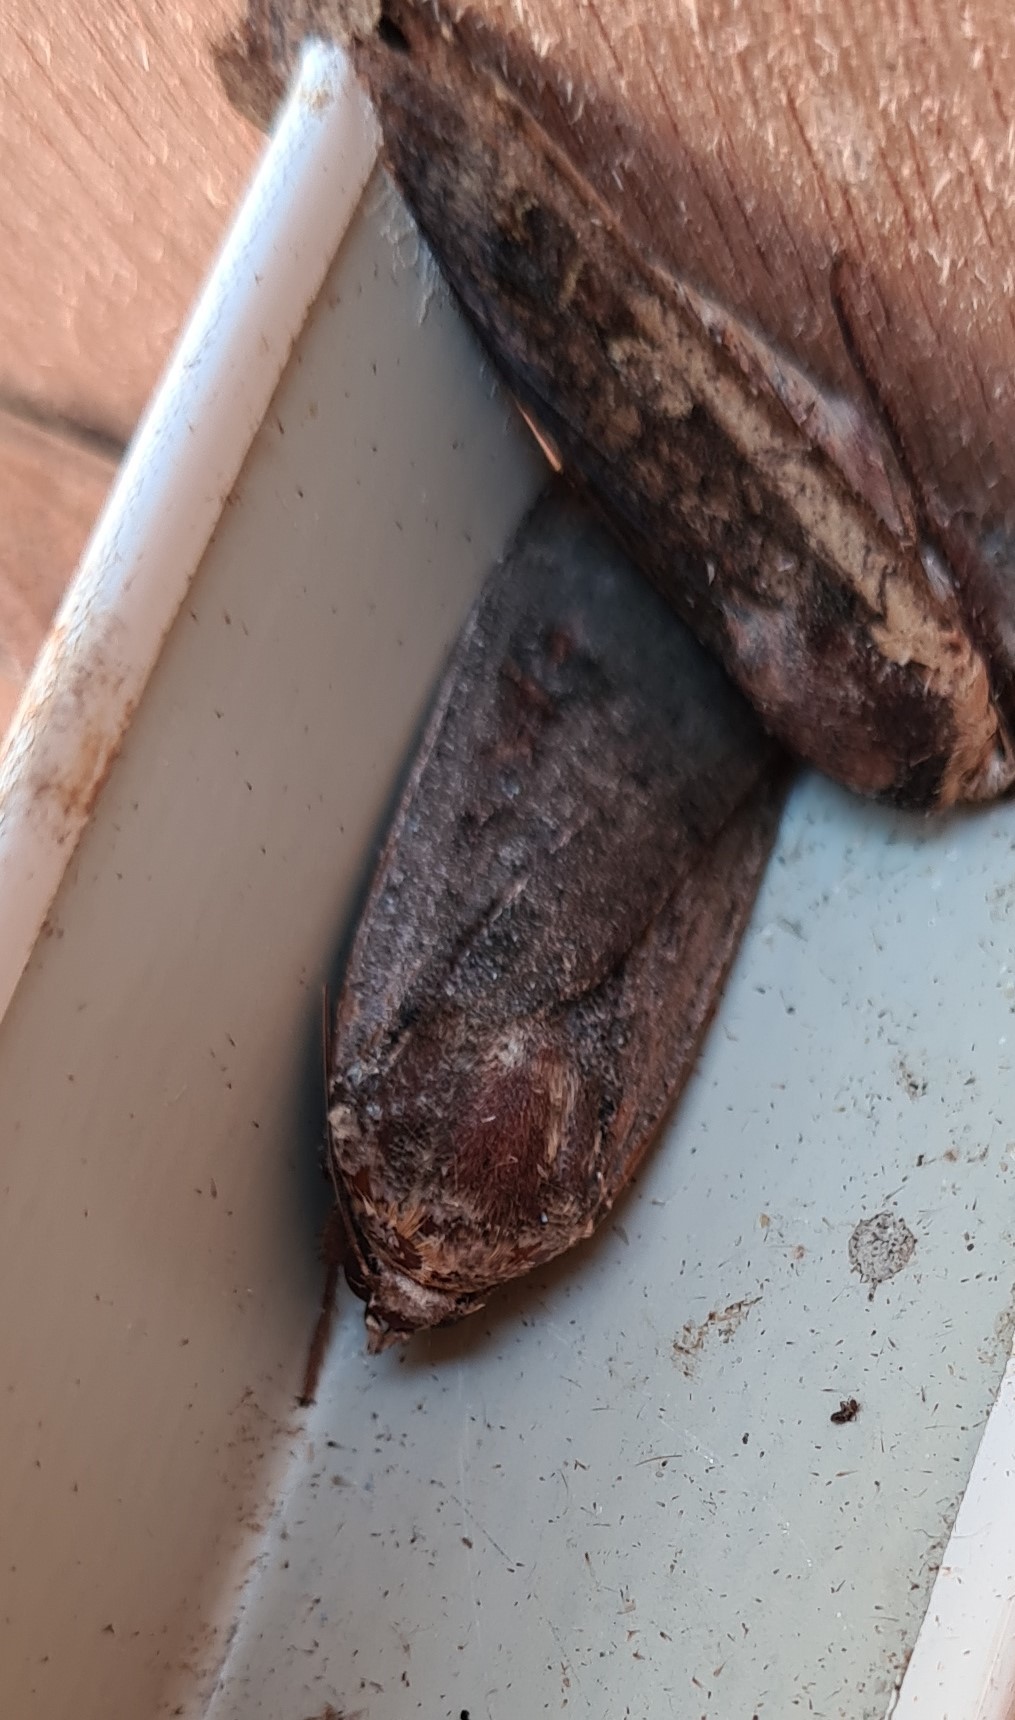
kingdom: Animalia
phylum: Arthropoda
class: Insecta
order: Lepidoptera
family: Noctuidae
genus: Noctua
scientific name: Noctua pronuba
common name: Large yellow underwing
